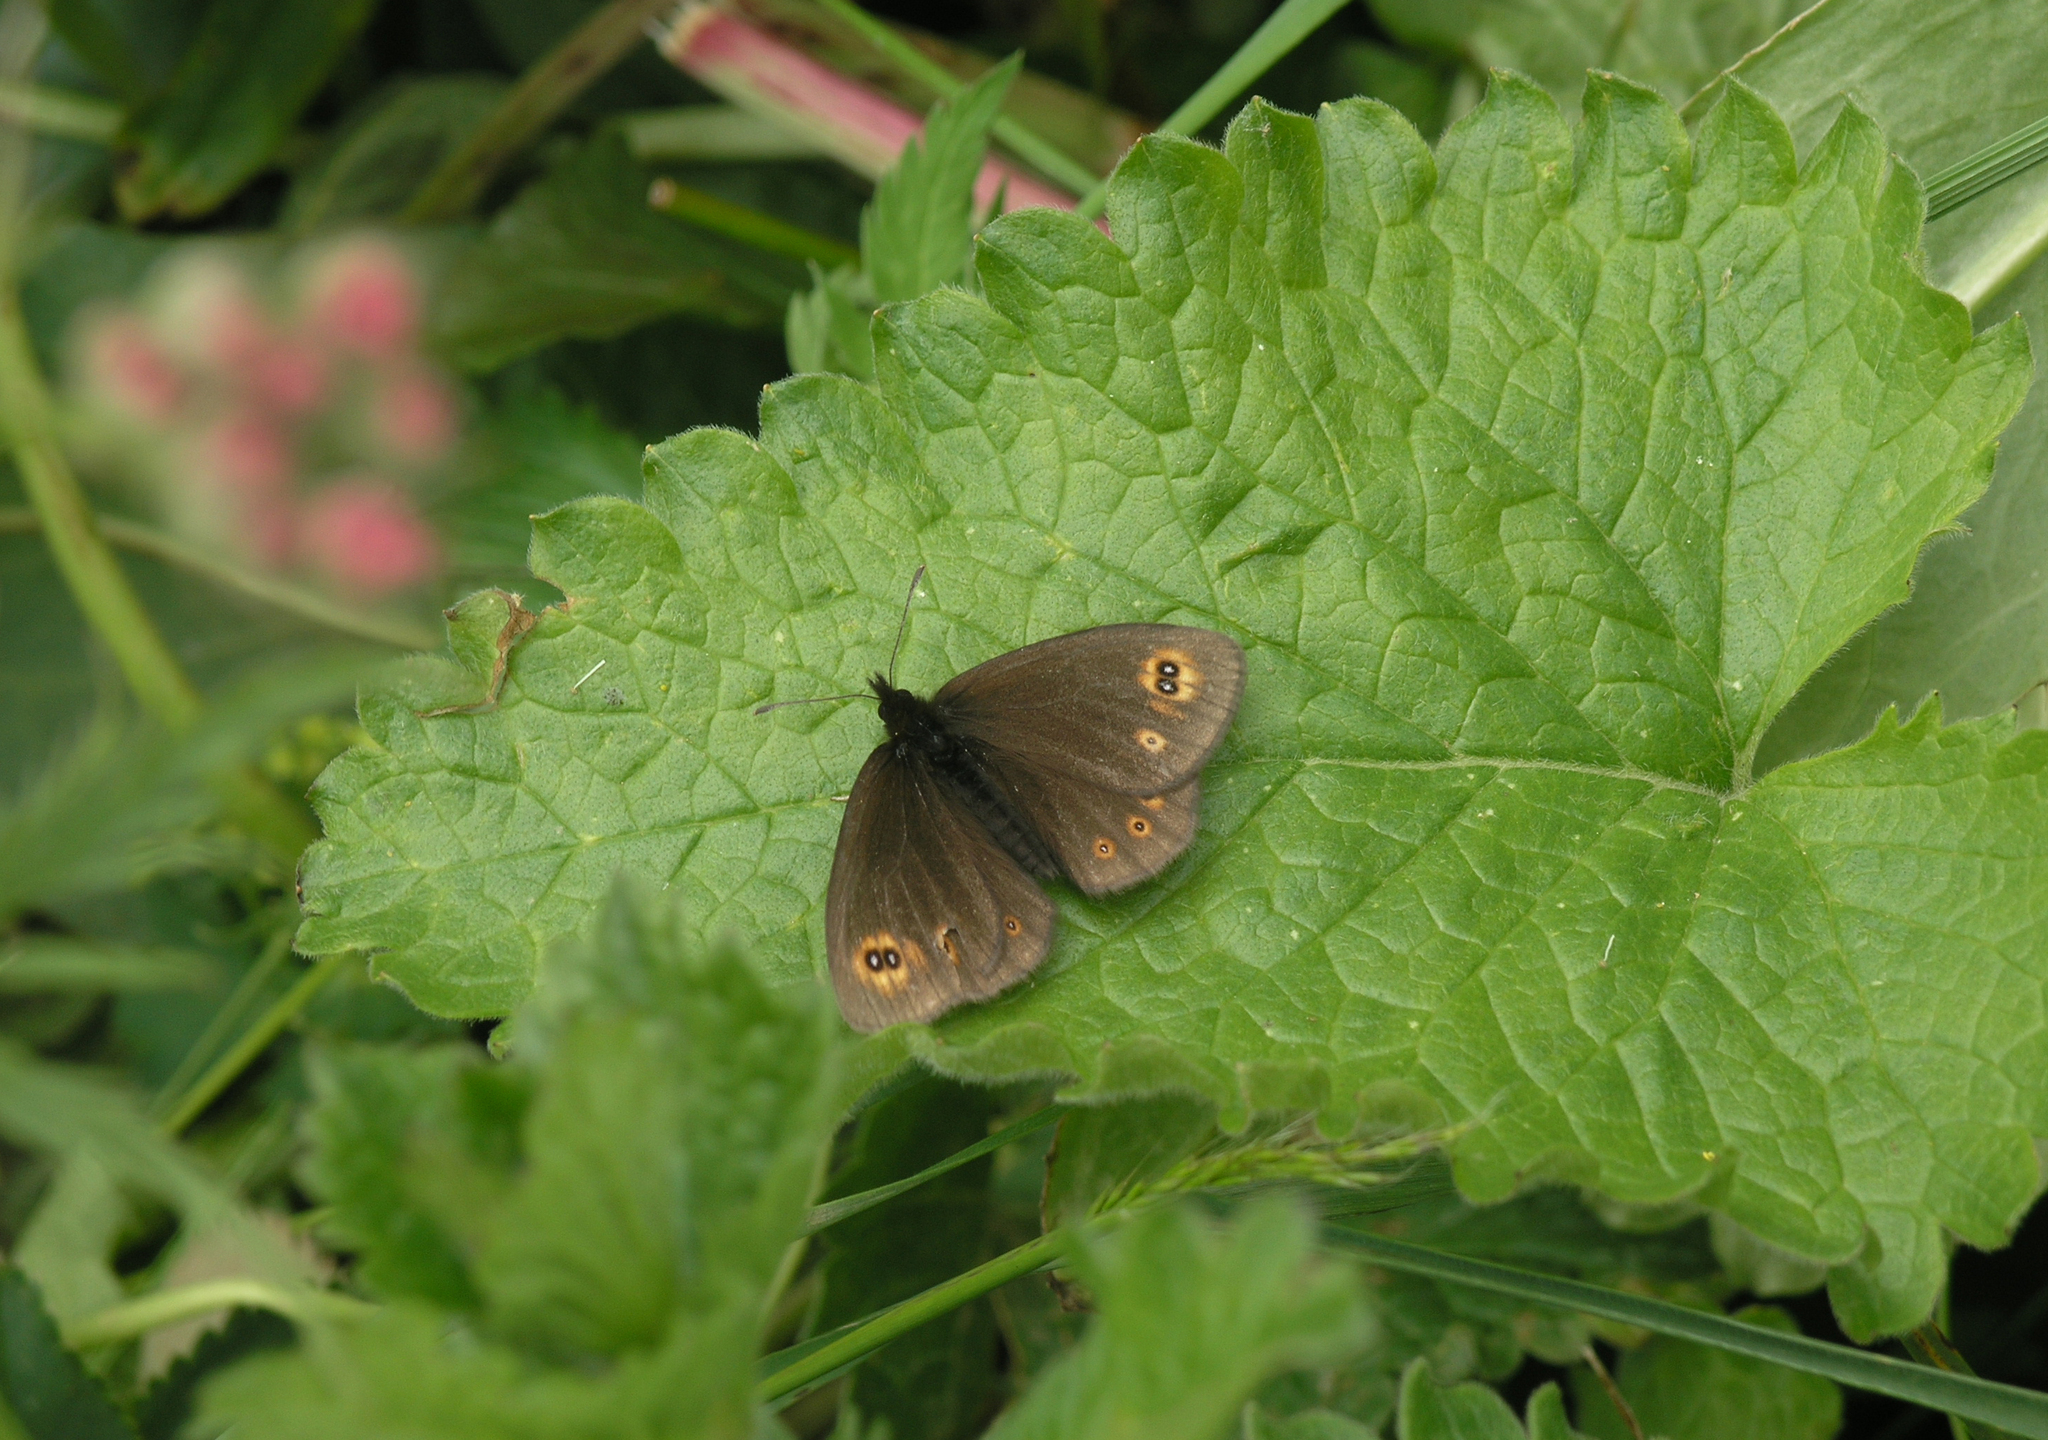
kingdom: Animalia
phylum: Arthropoda
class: Insecta
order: Lepidoptera
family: Nymphalidae
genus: Erebia
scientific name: Erebia medusa
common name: Woodland ringlet
